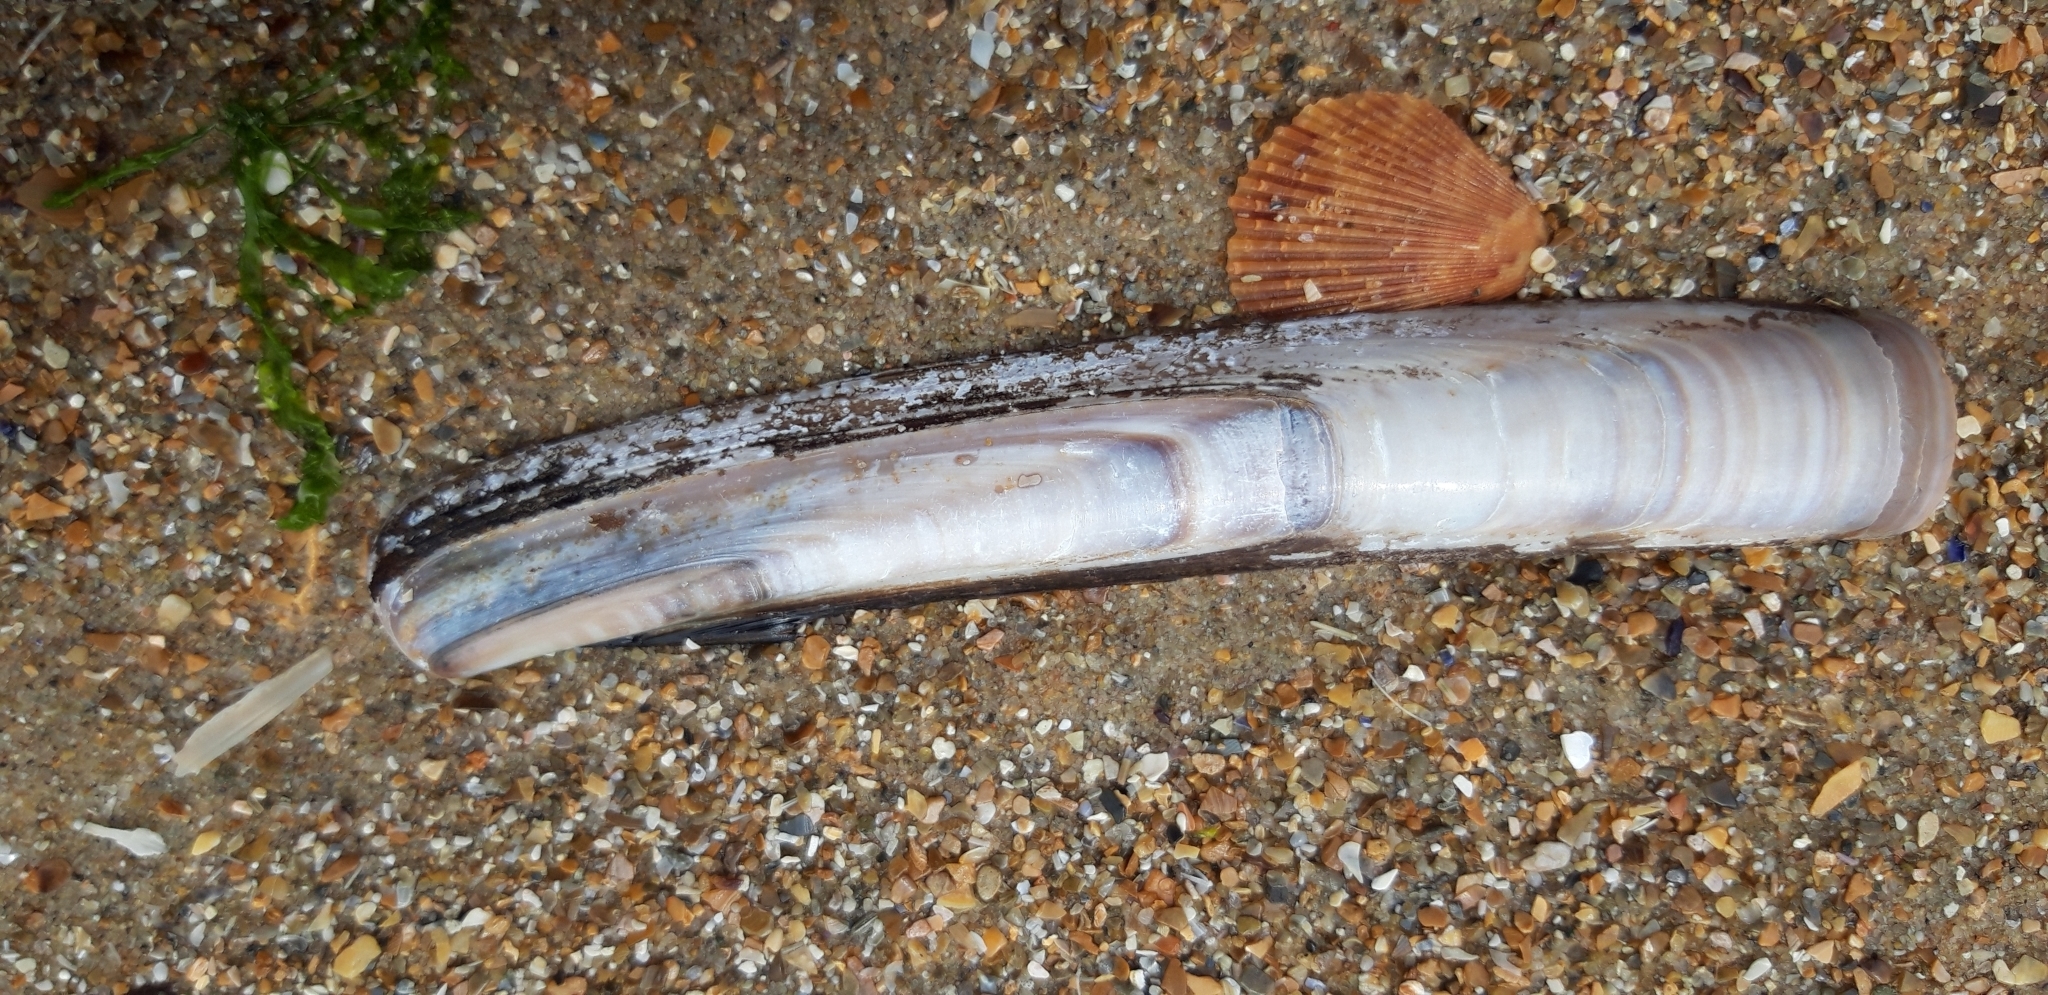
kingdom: Animalia
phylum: Mollusca
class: Bivalvia
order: Adapedonta
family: Pharidae
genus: Ensis
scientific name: Ensis leei
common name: American jack knife clam
